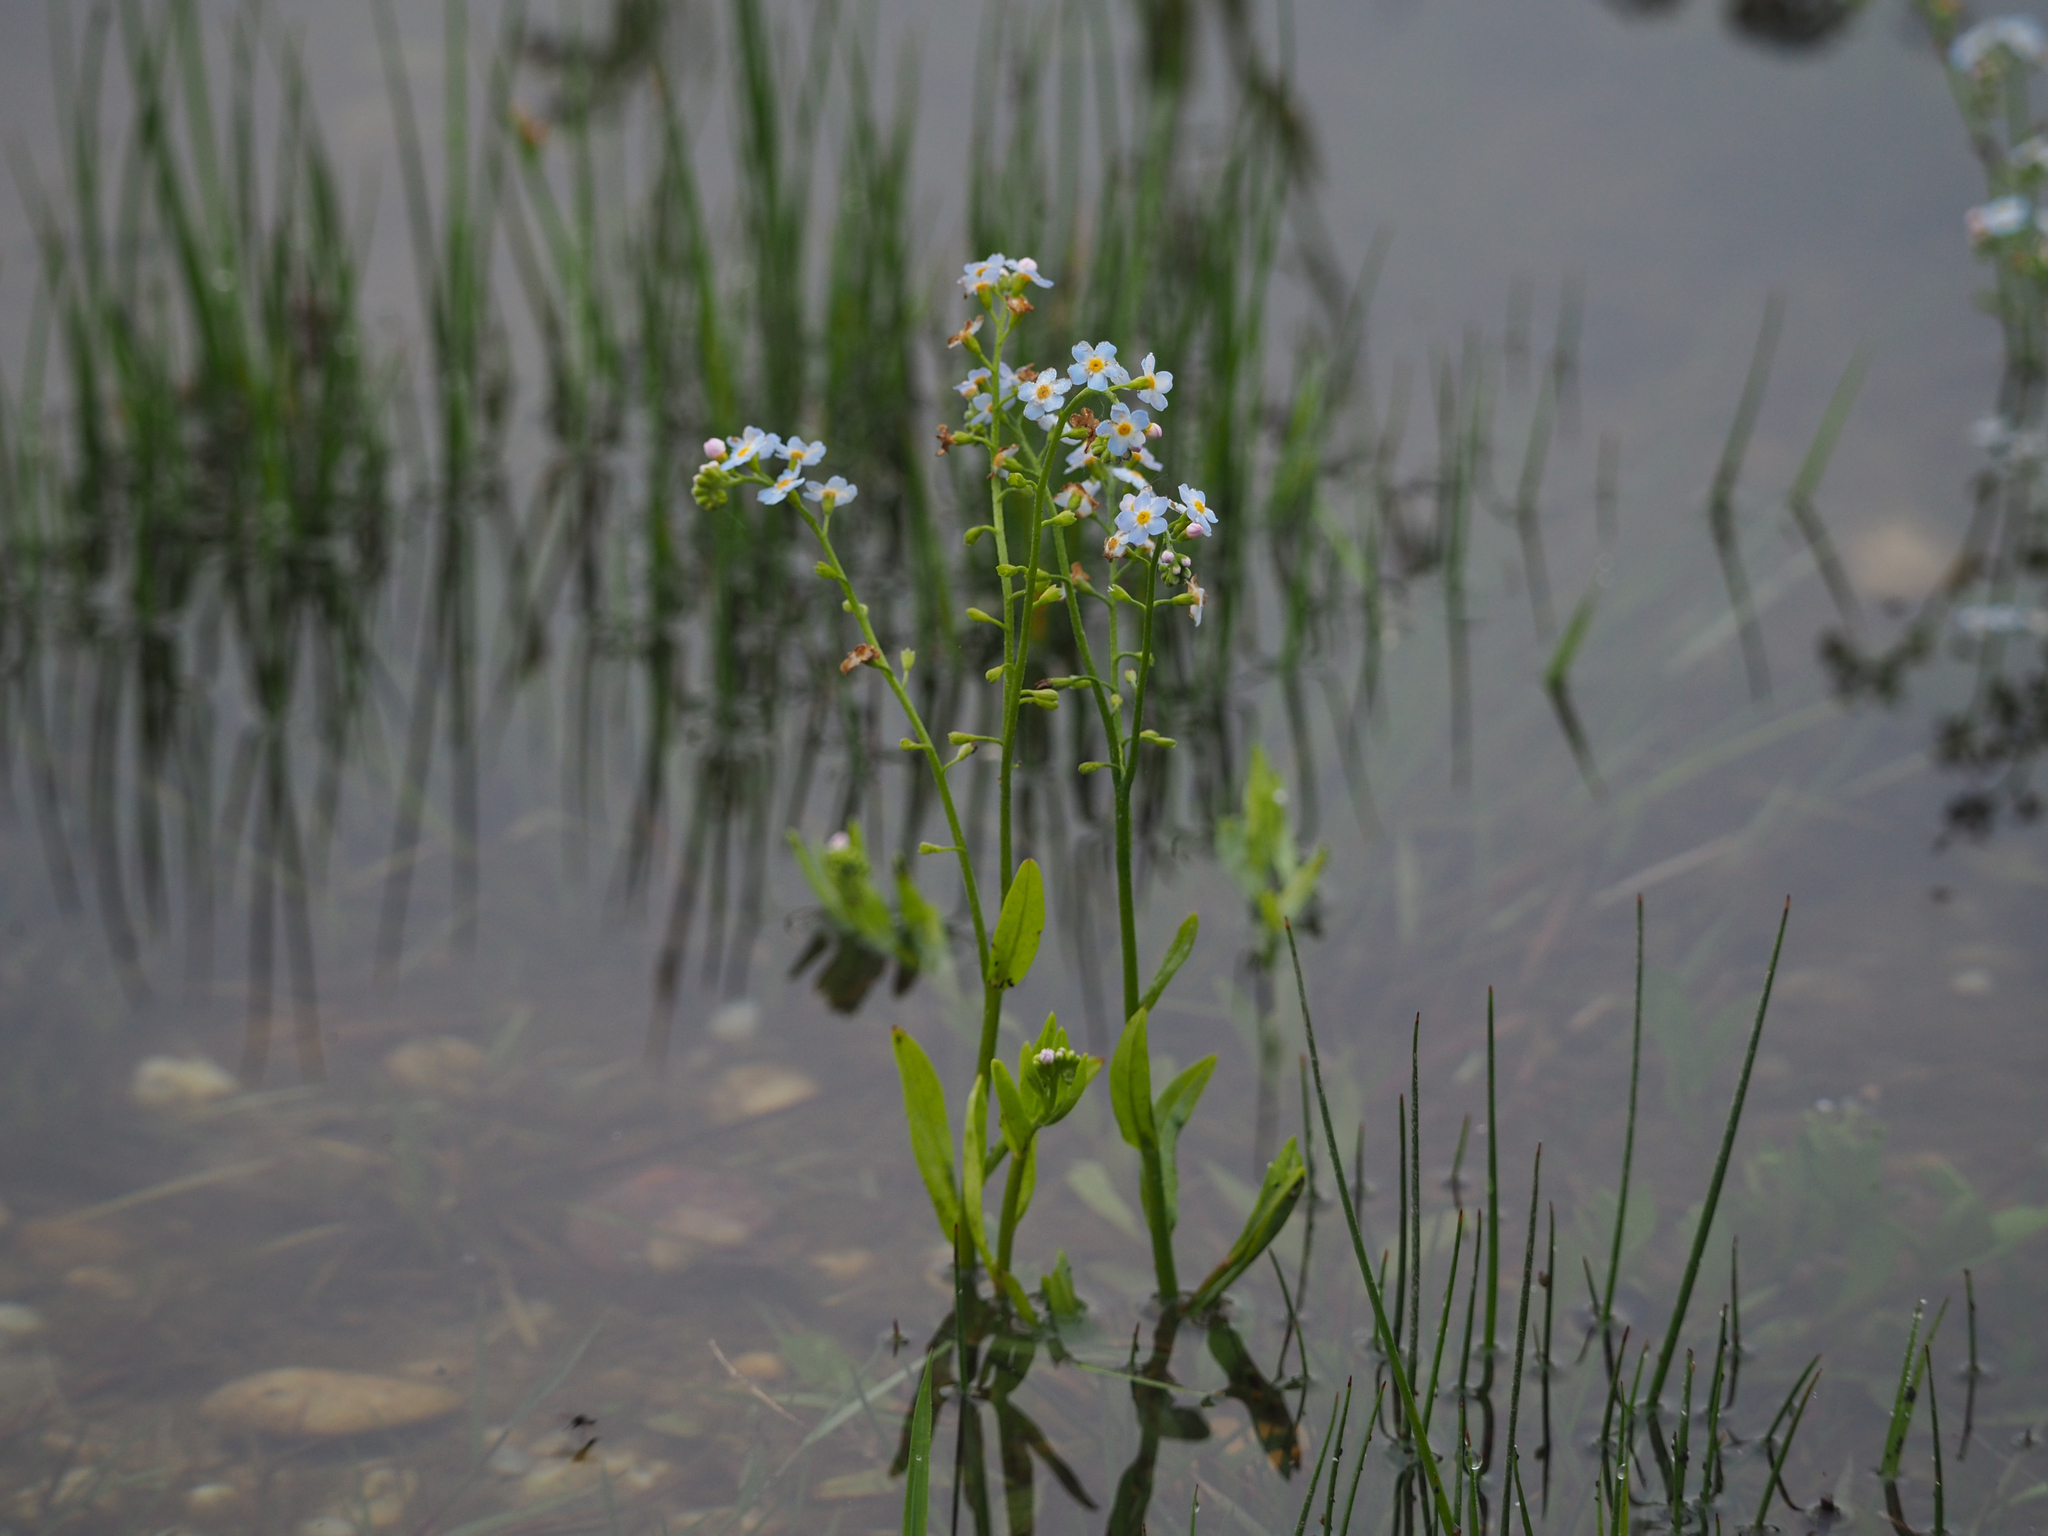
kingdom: Plantae
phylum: Tracheophyta
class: Magnoliopsida
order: Boraginales
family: Boraginaceae
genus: Myosotis
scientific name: Myosotis scorpioides
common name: Water forget-me-not
